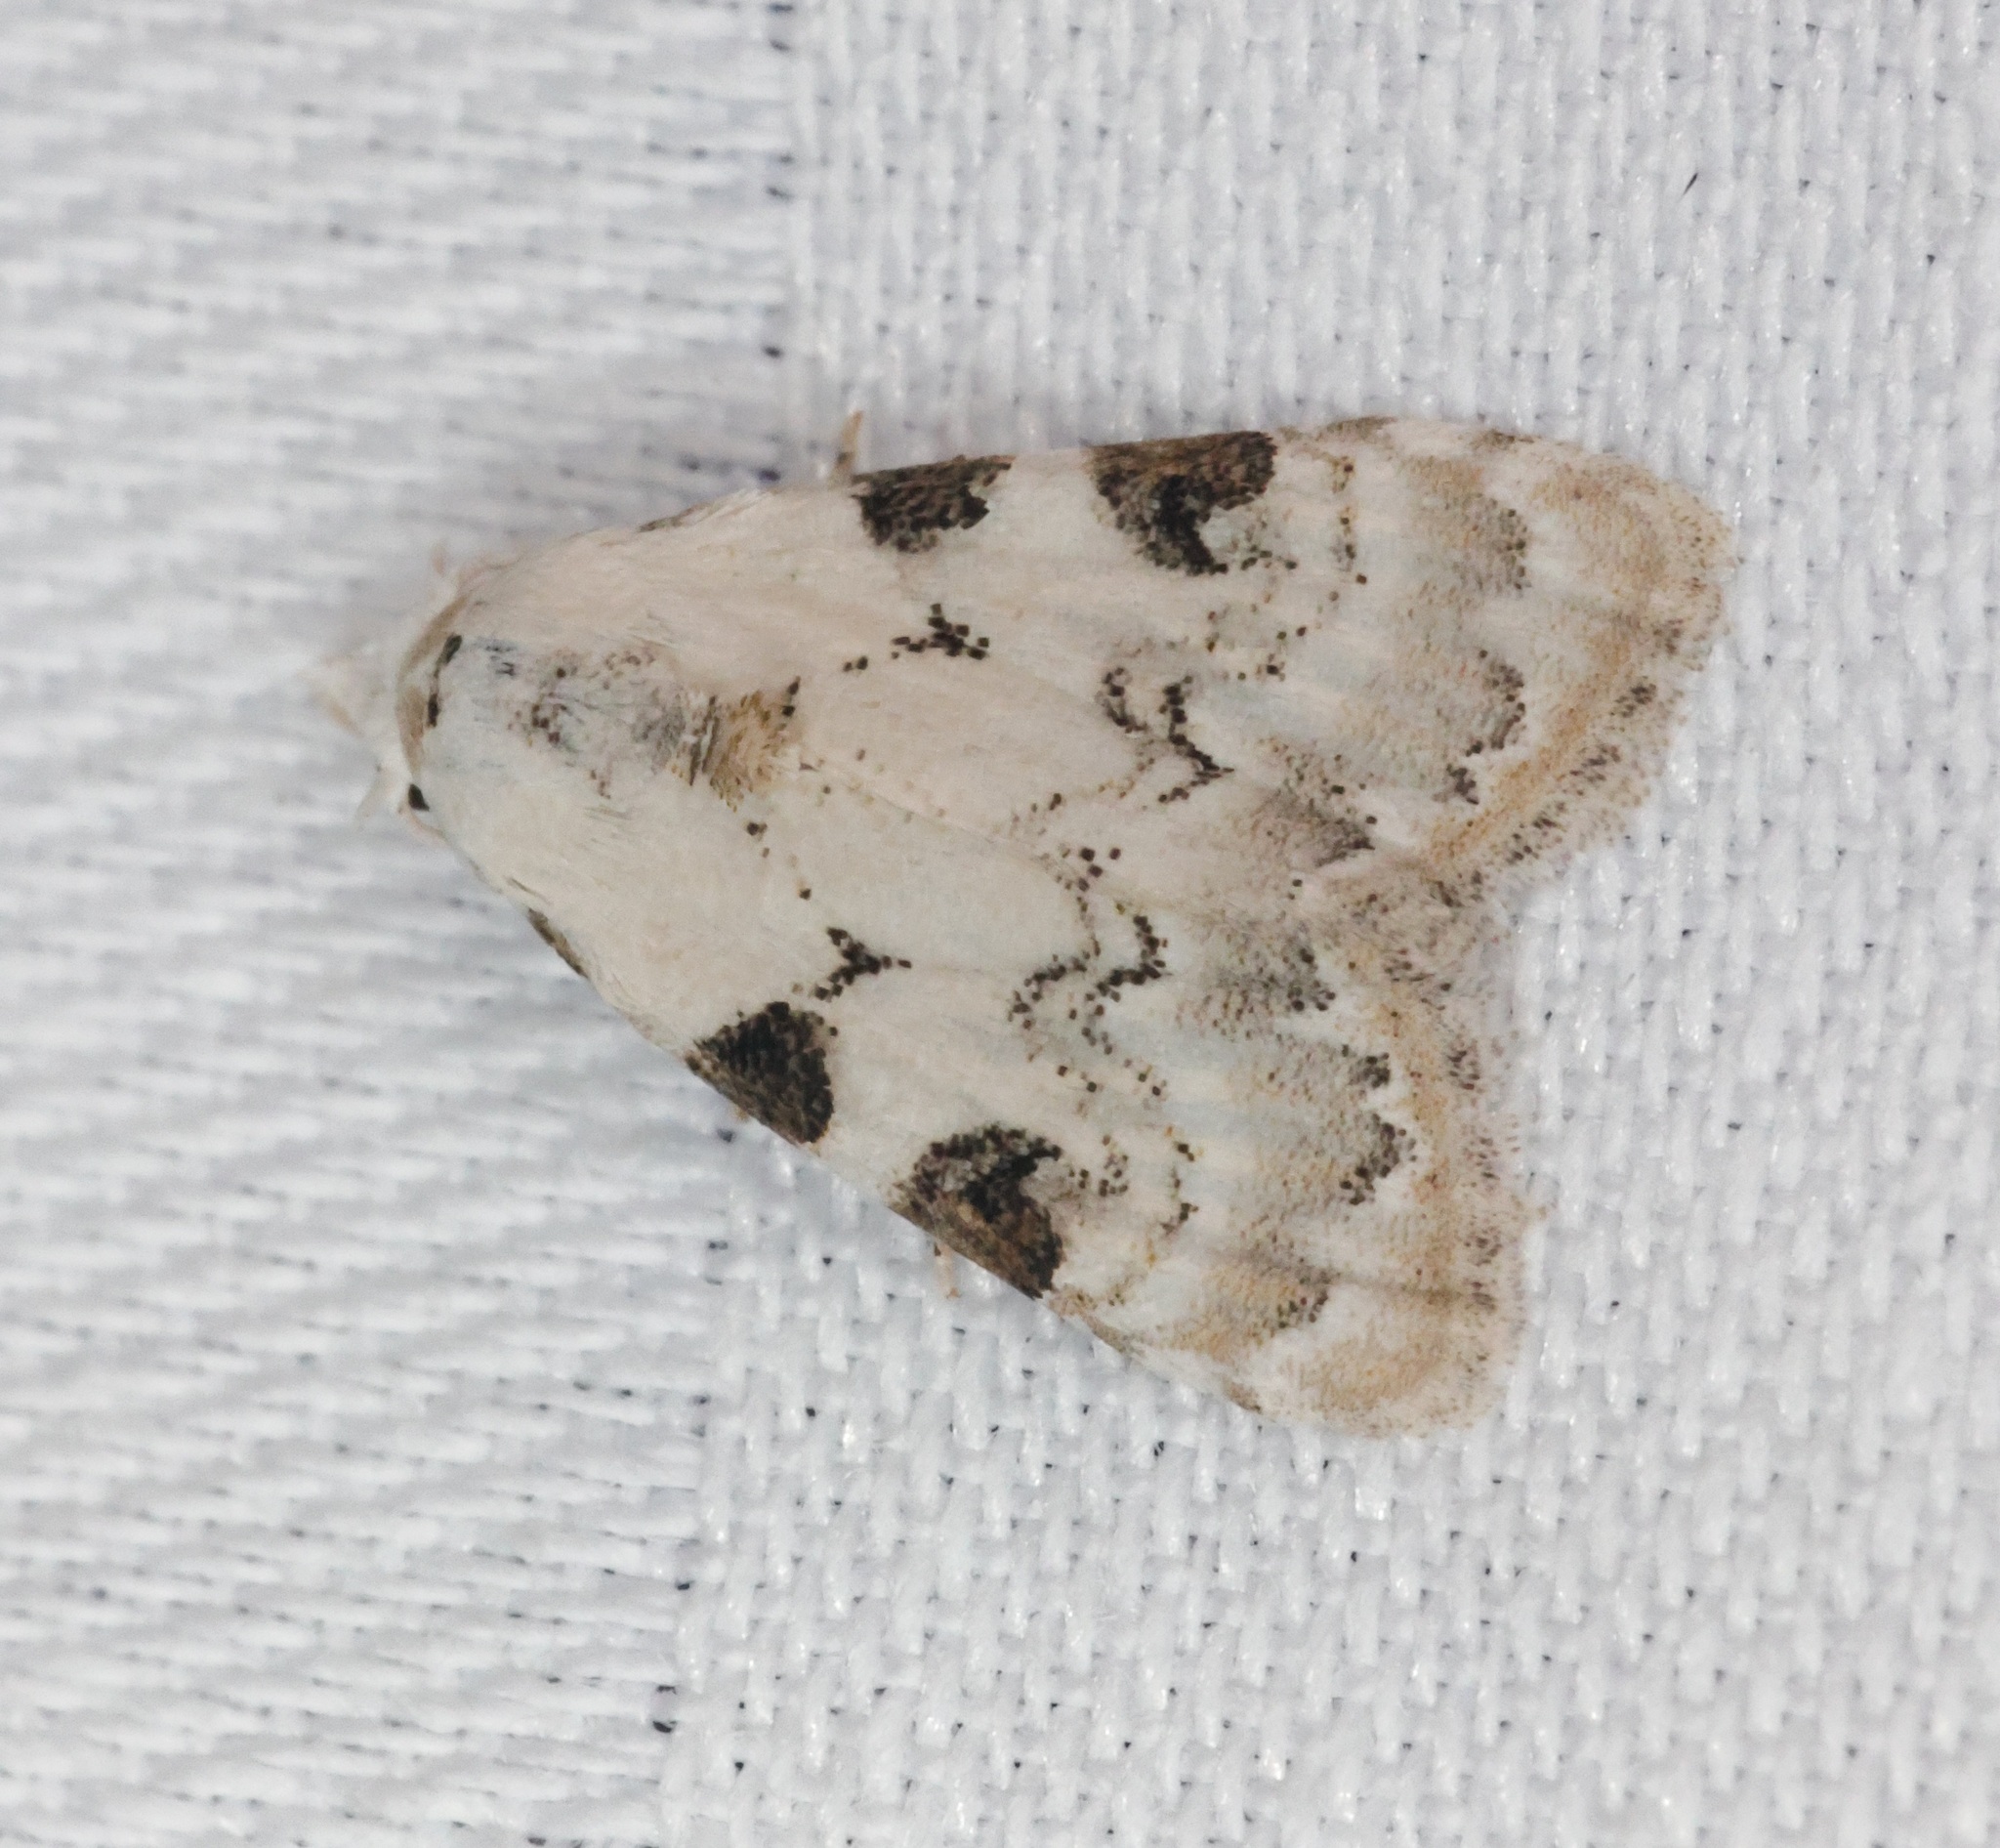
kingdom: Animalia
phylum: Arthropoda
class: Insecta
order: Lepidoptera
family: Nolidae
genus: Nola
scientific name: Nola pascua
